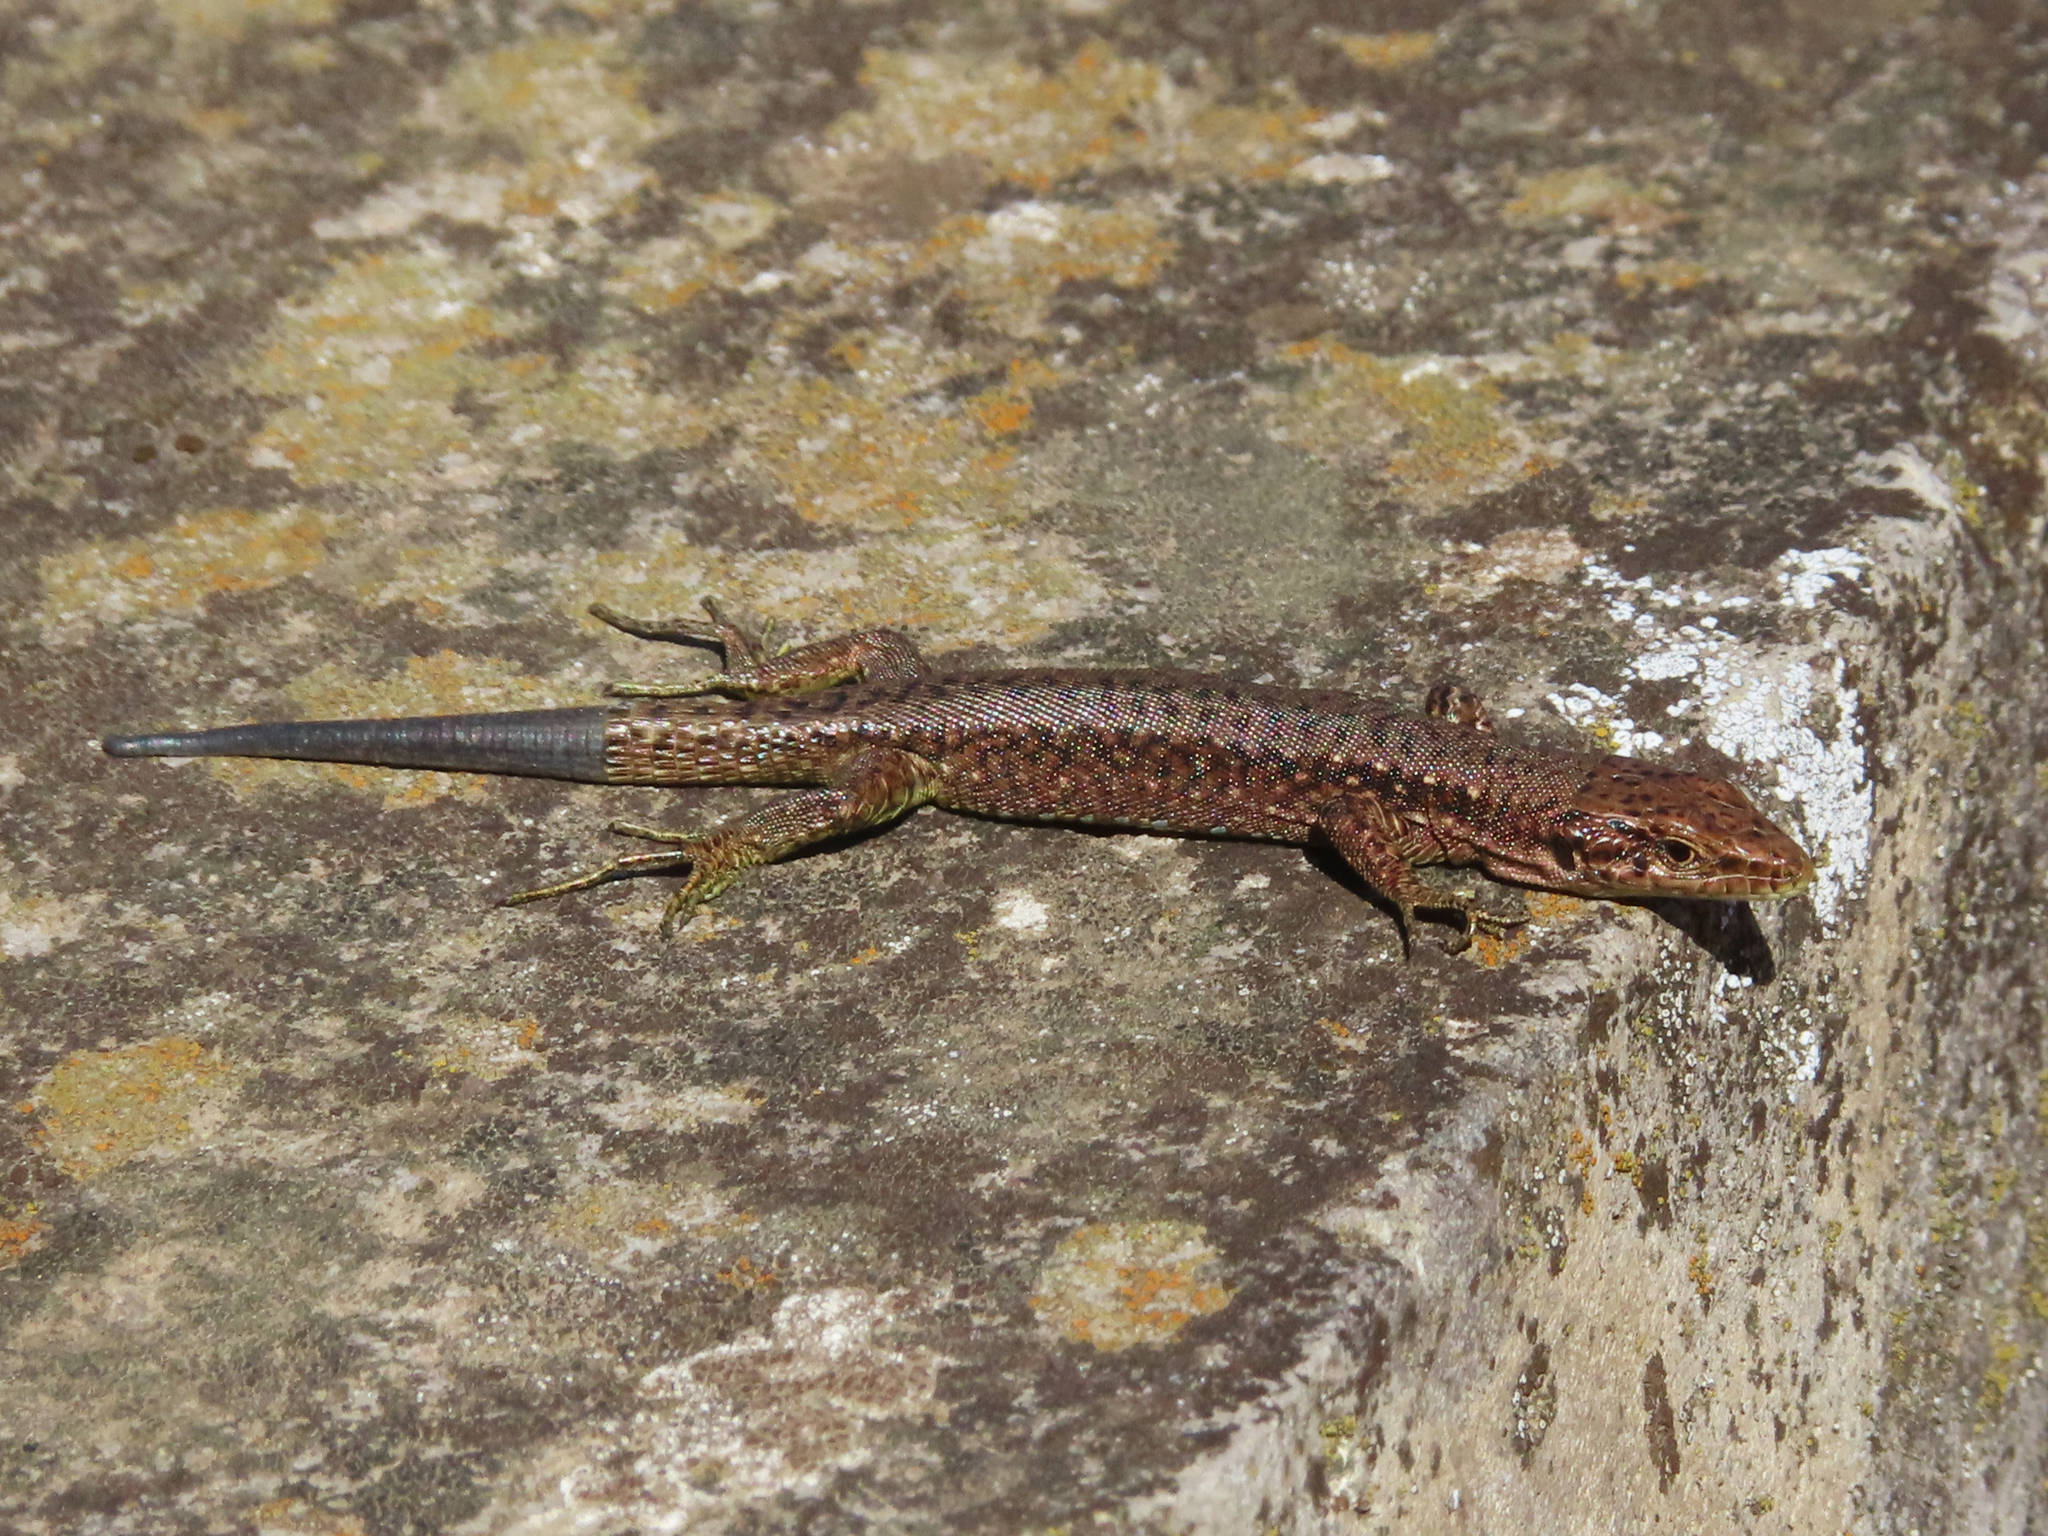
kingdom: Animalia
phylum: Chordata
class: Squamata
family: Lacertidae
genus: Darevskia
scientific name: Darevskia armeniaca
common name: Armenian lizard
